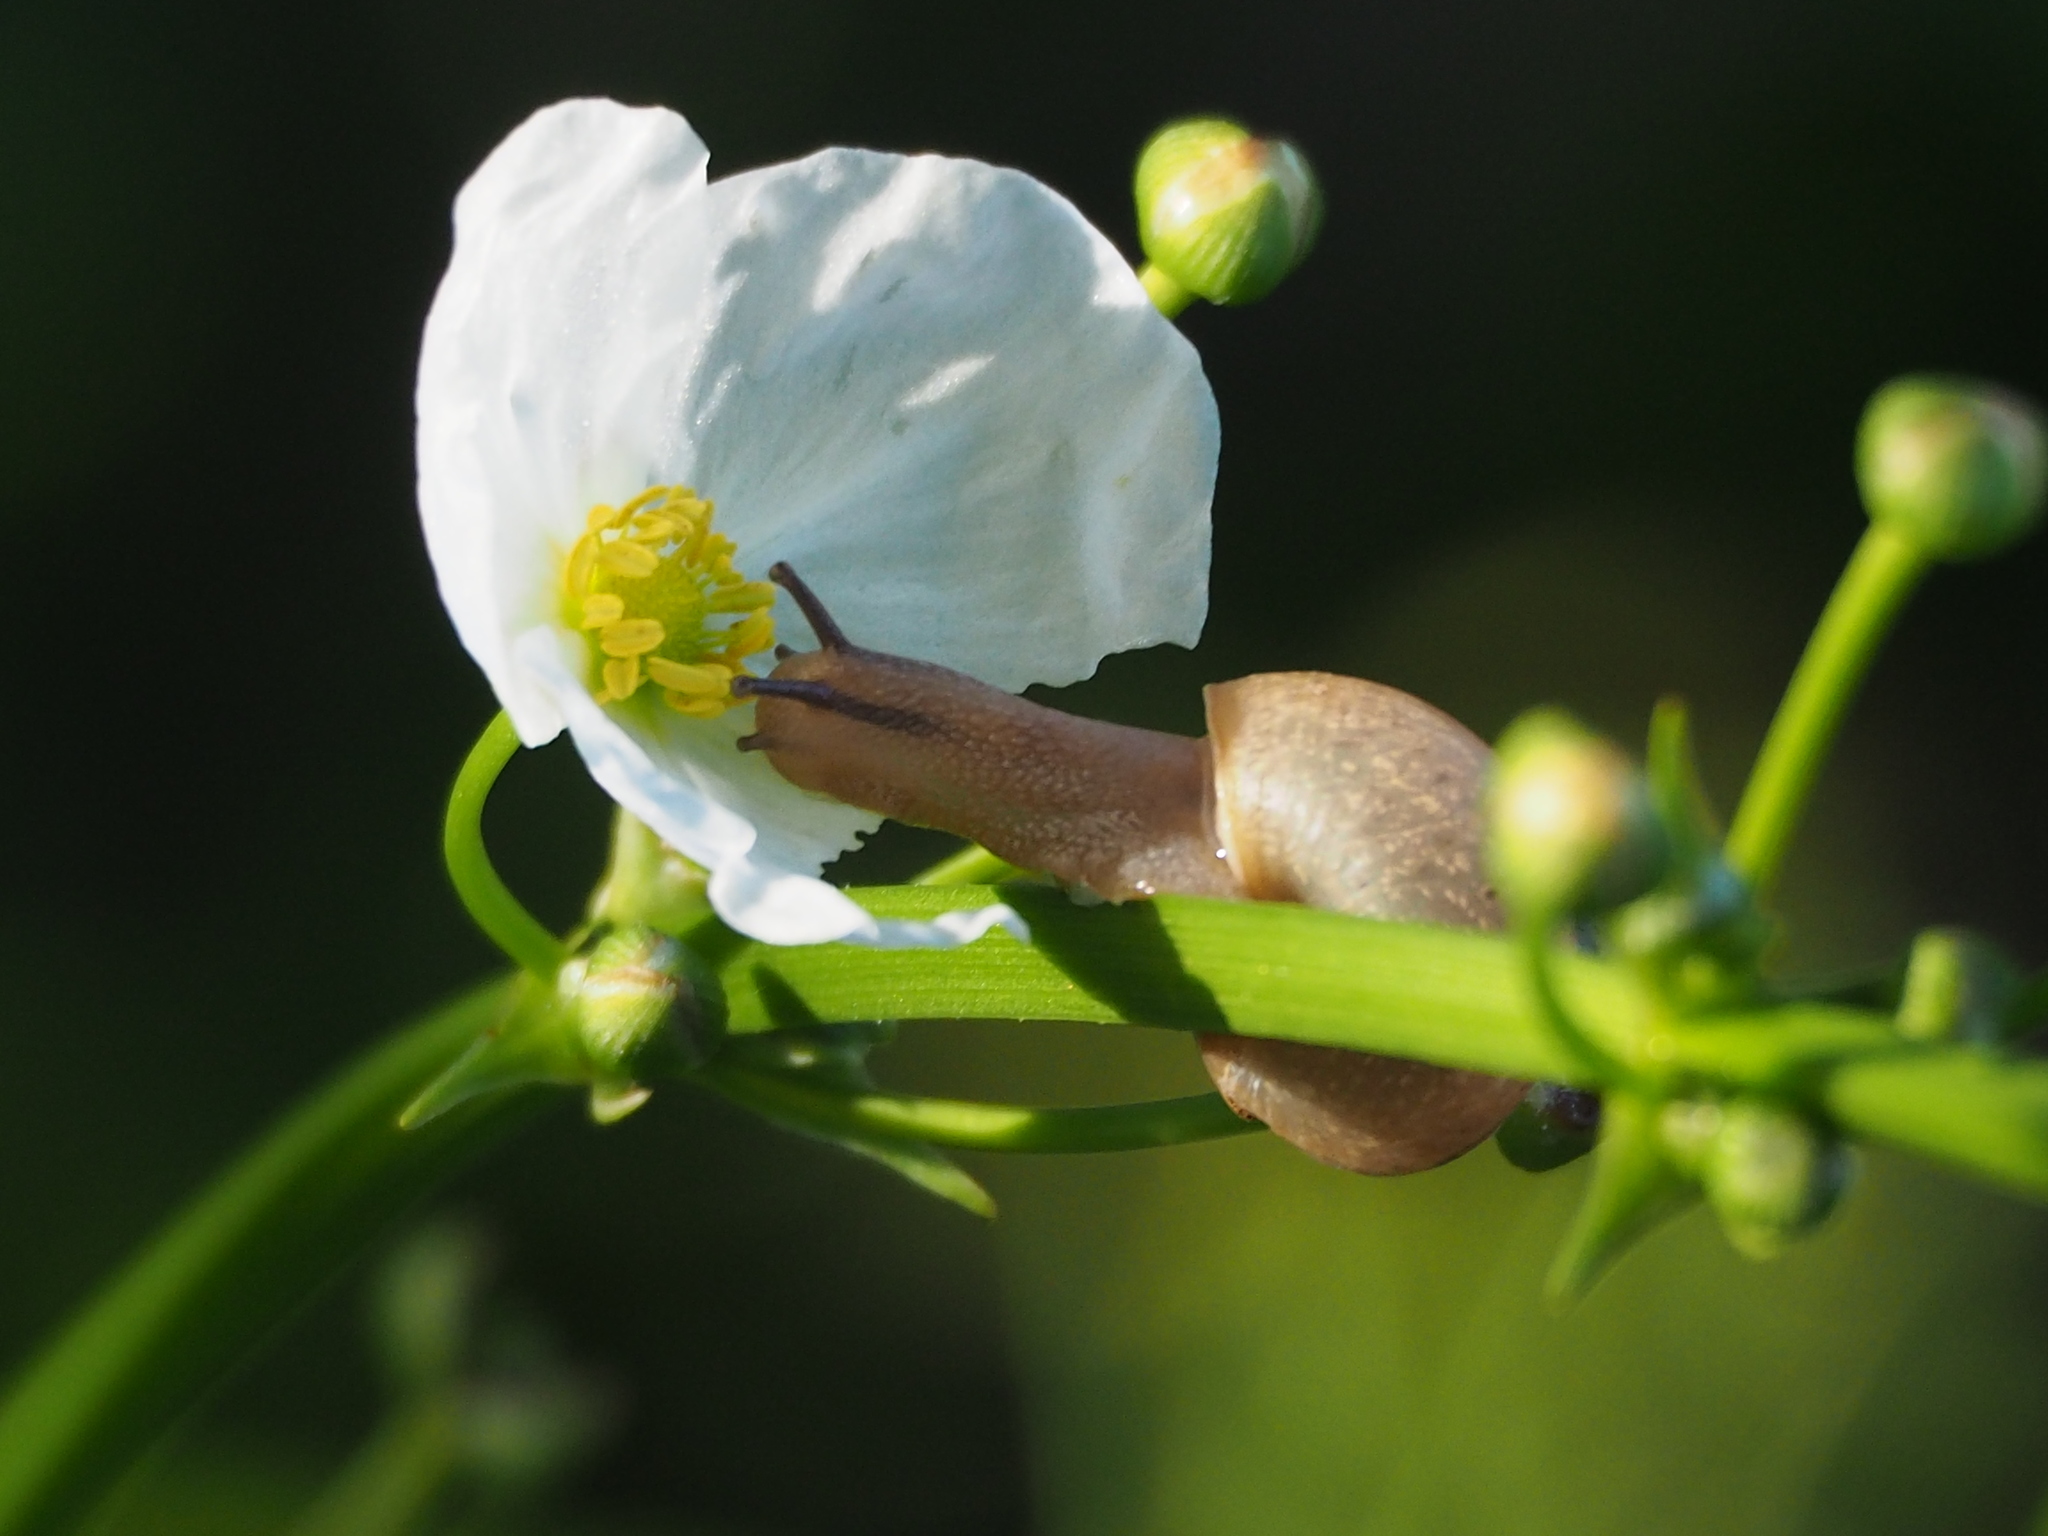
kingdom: Animalia
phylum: Mollusca
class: Gastropoda
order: Stylommatophora
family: Camaenidae
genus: Bradybaena
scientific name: Bradybaena similaris
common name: Asian trampsnail
